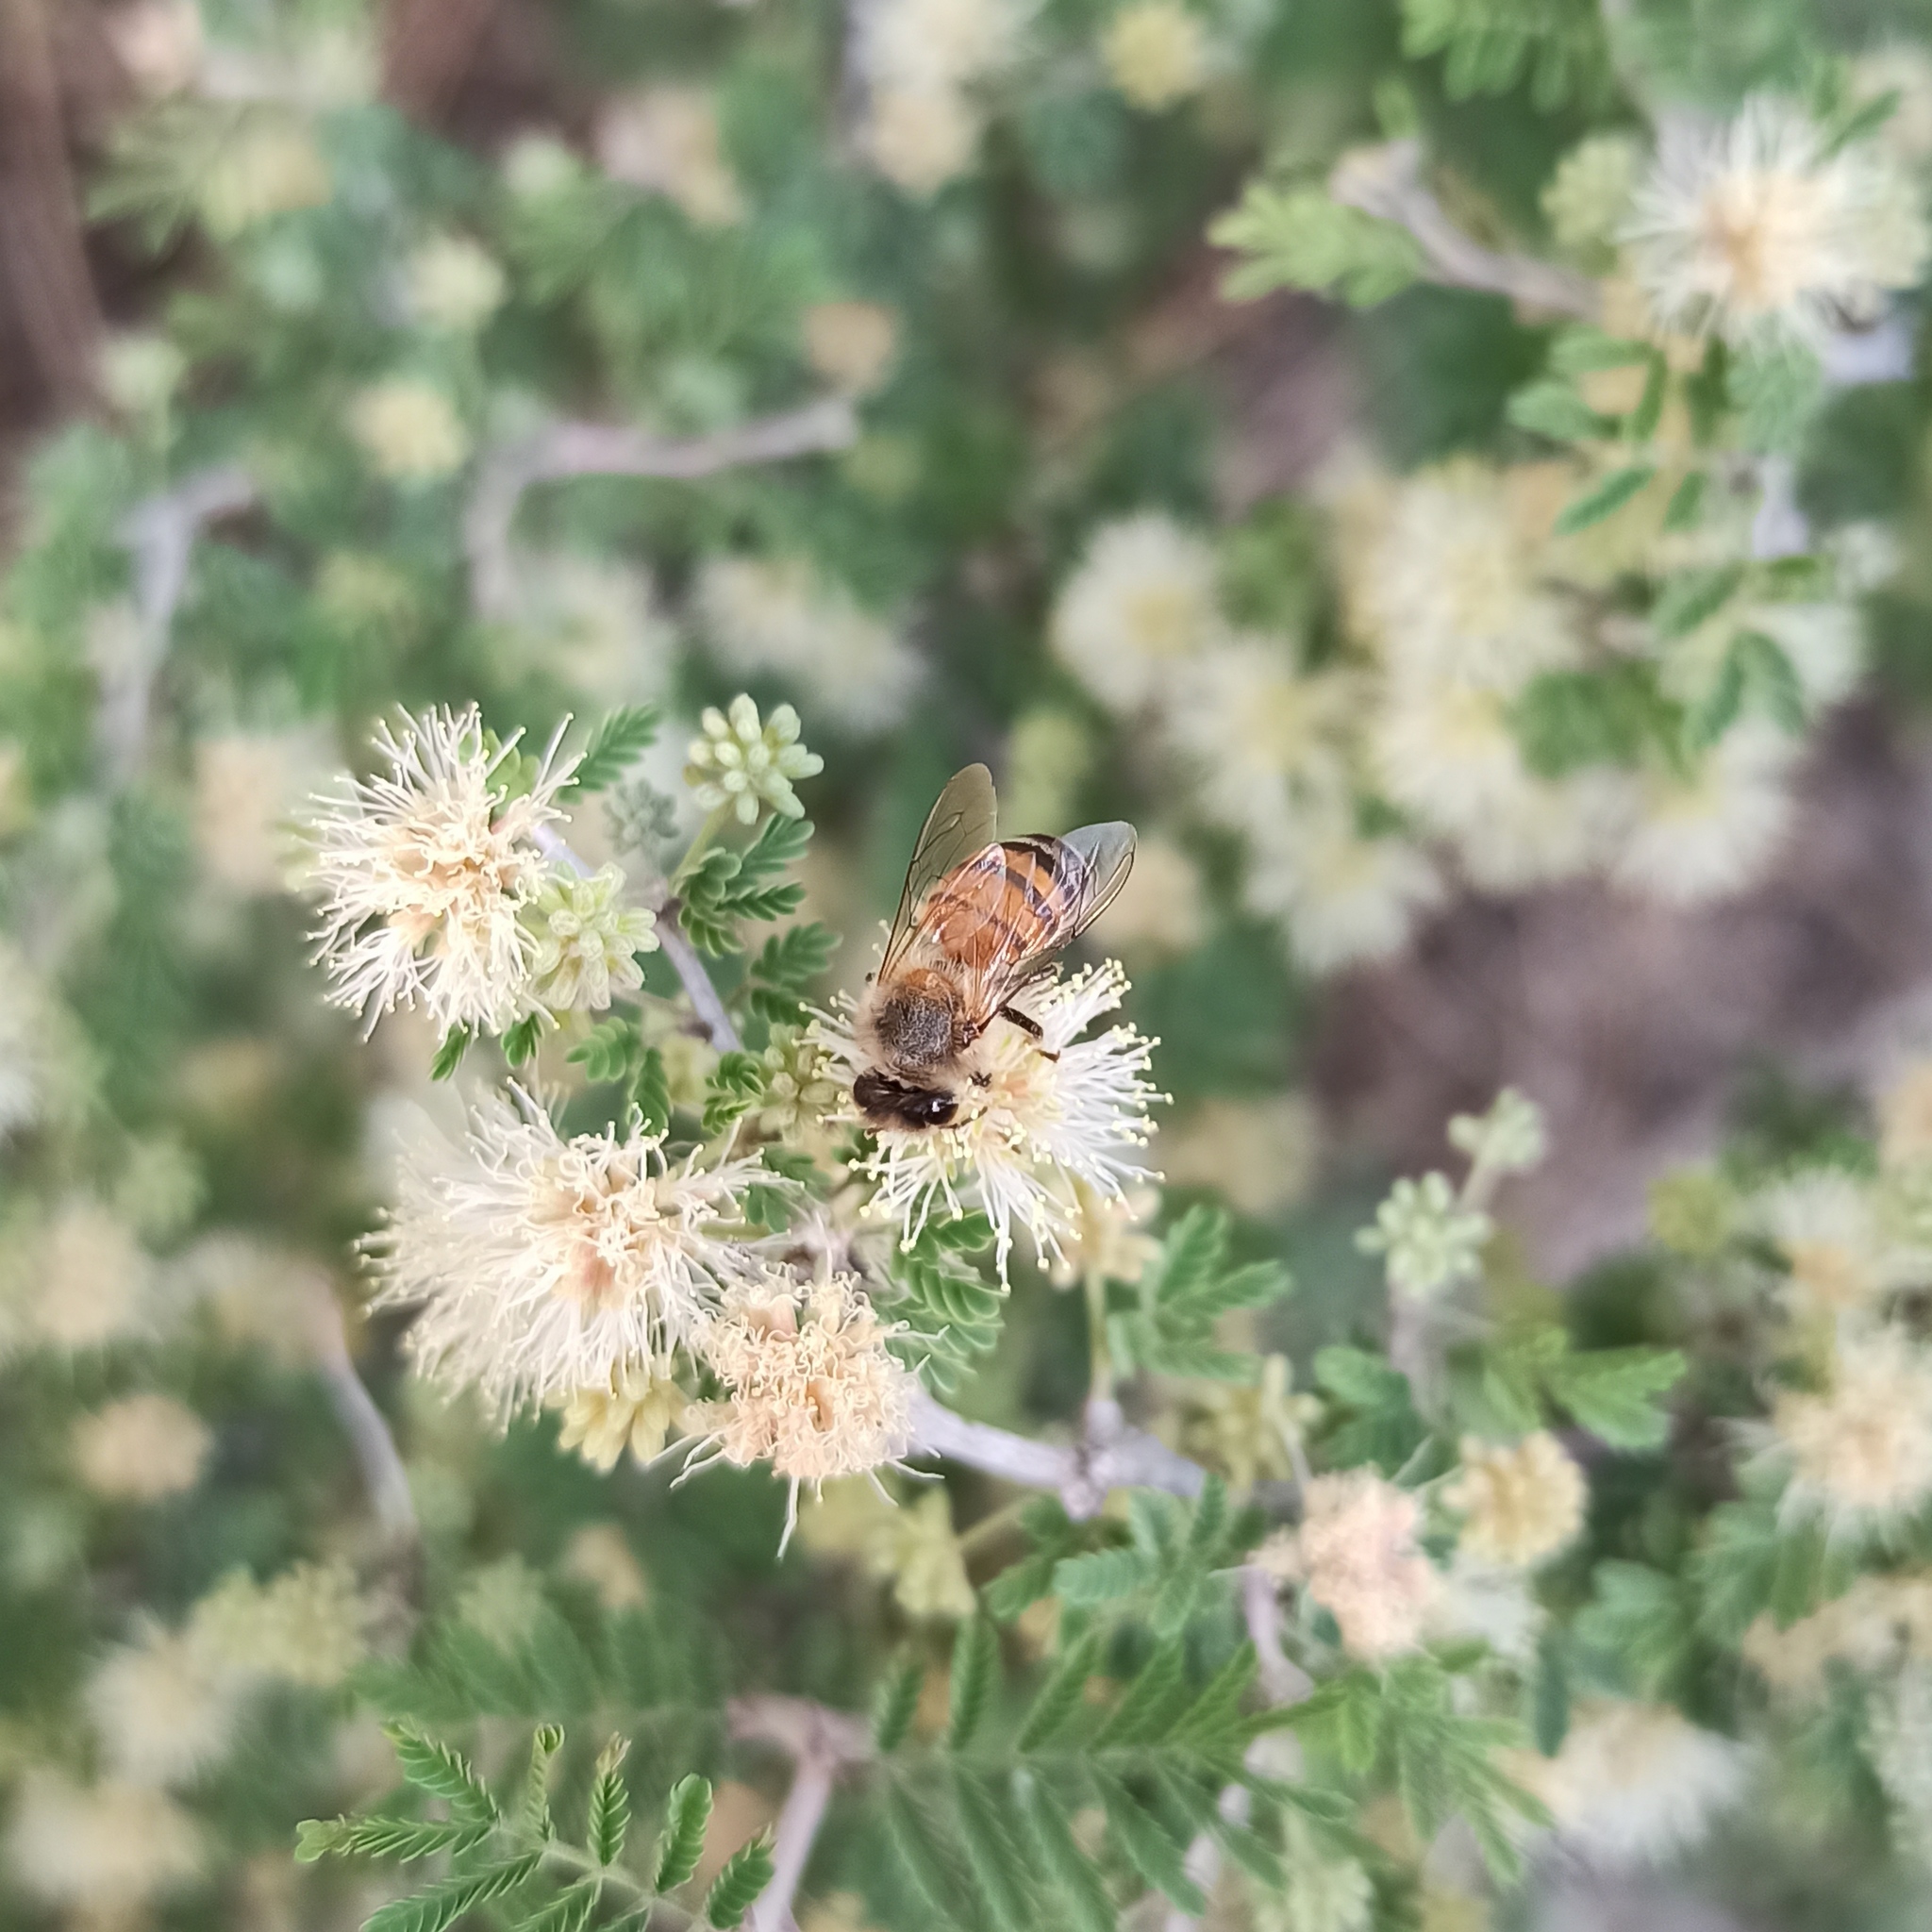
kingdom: Animalia
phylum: Arthropoda
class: Insecta
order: Hymenoptera
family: Apidae
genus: Apis
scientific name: Apis mellifera
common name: Honey bee
